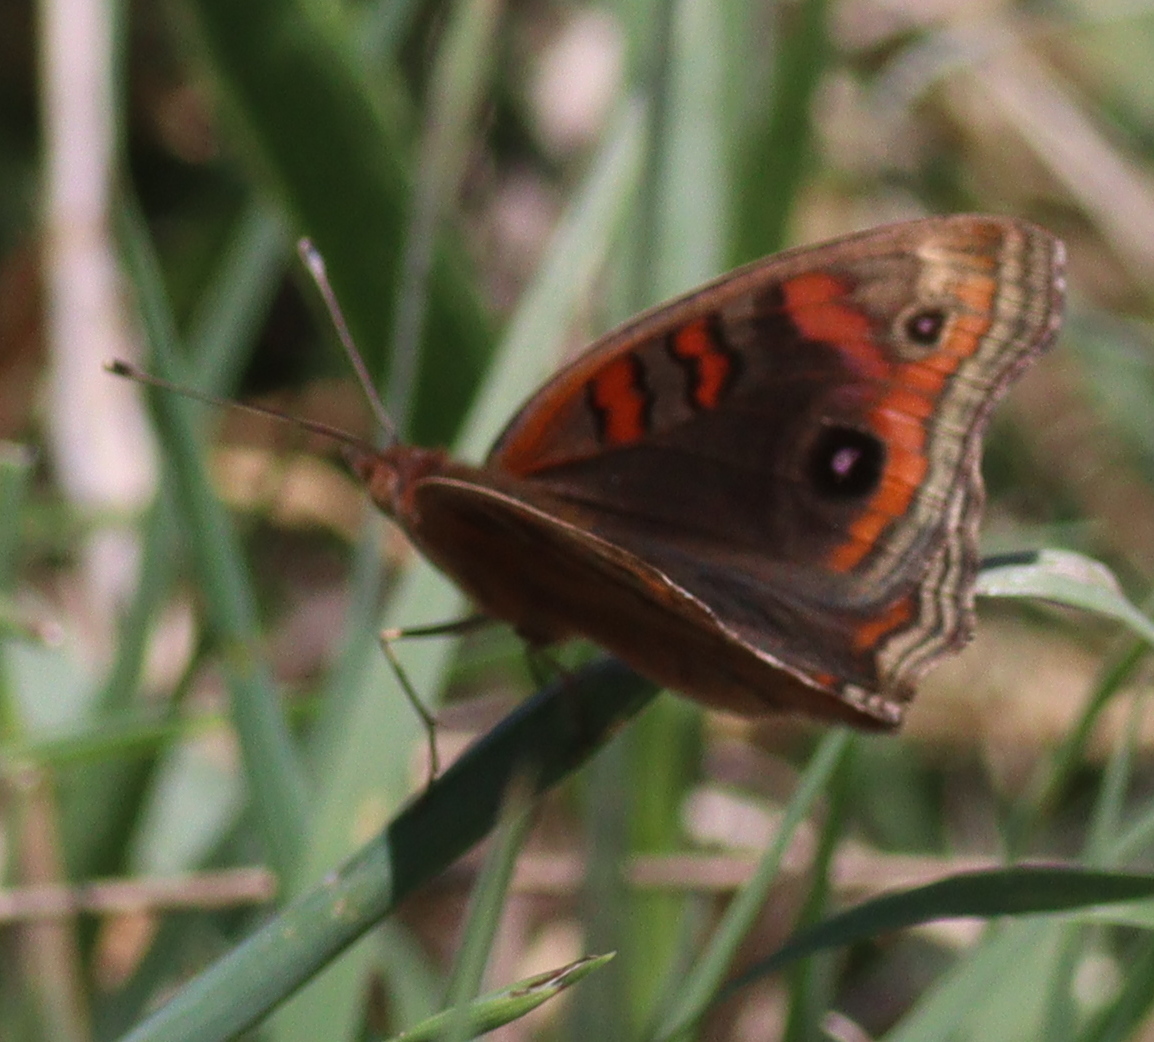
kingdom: Animalia
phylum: Arthropoda
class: Insecta
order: Lepidoptera
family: Nymphalidae
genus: Junonia
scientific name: Junonia lavinia
